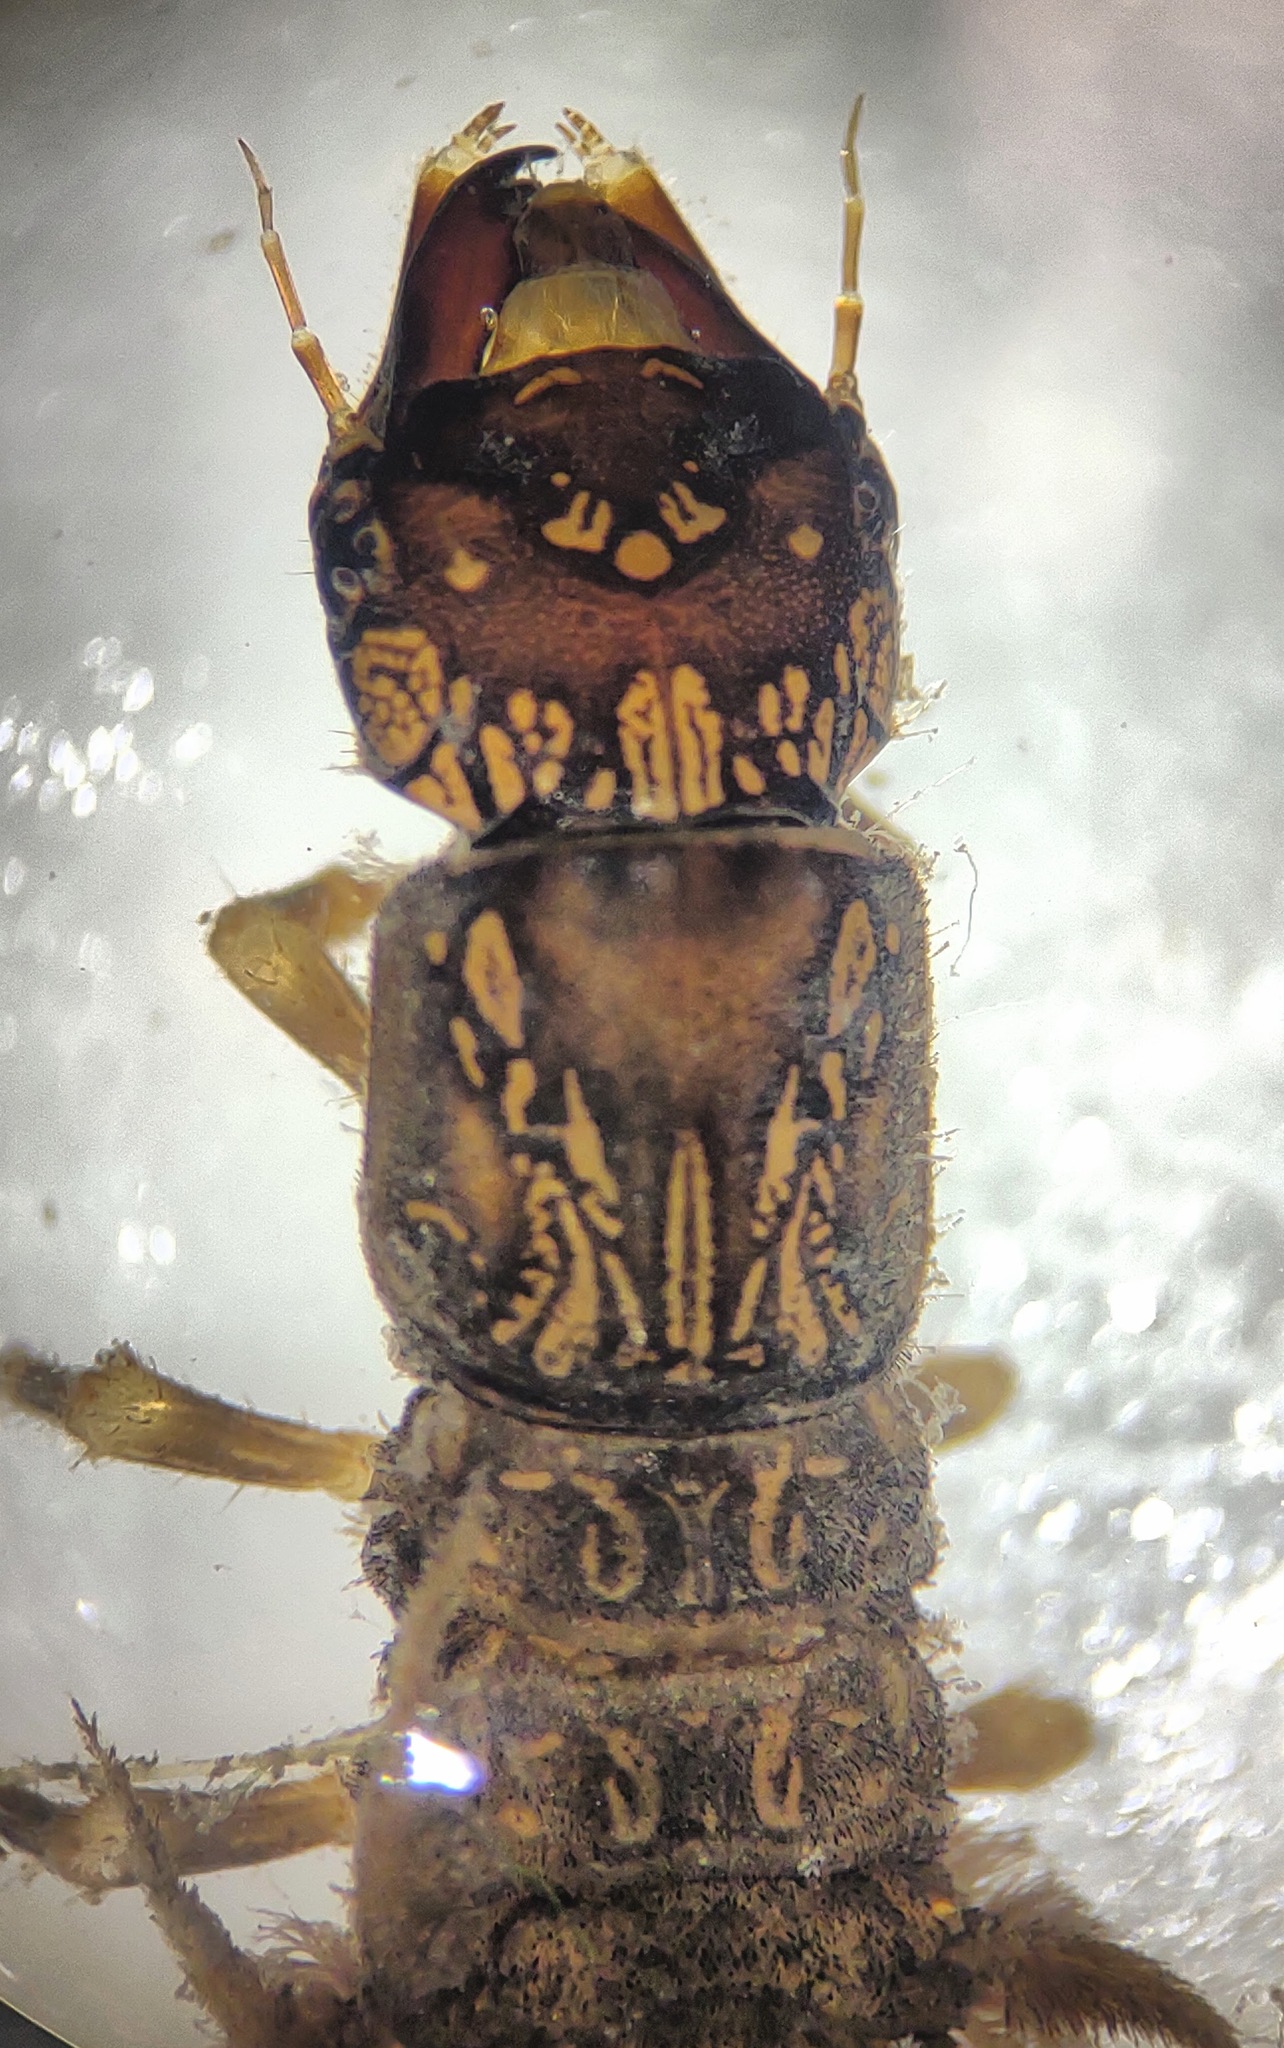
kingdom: Animalia
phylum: Arthropoda
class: Insecta
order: Megaloptera
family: Corydalidae
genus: Corydalus
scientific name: Corydalus cornutus
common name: Dobsonfly
